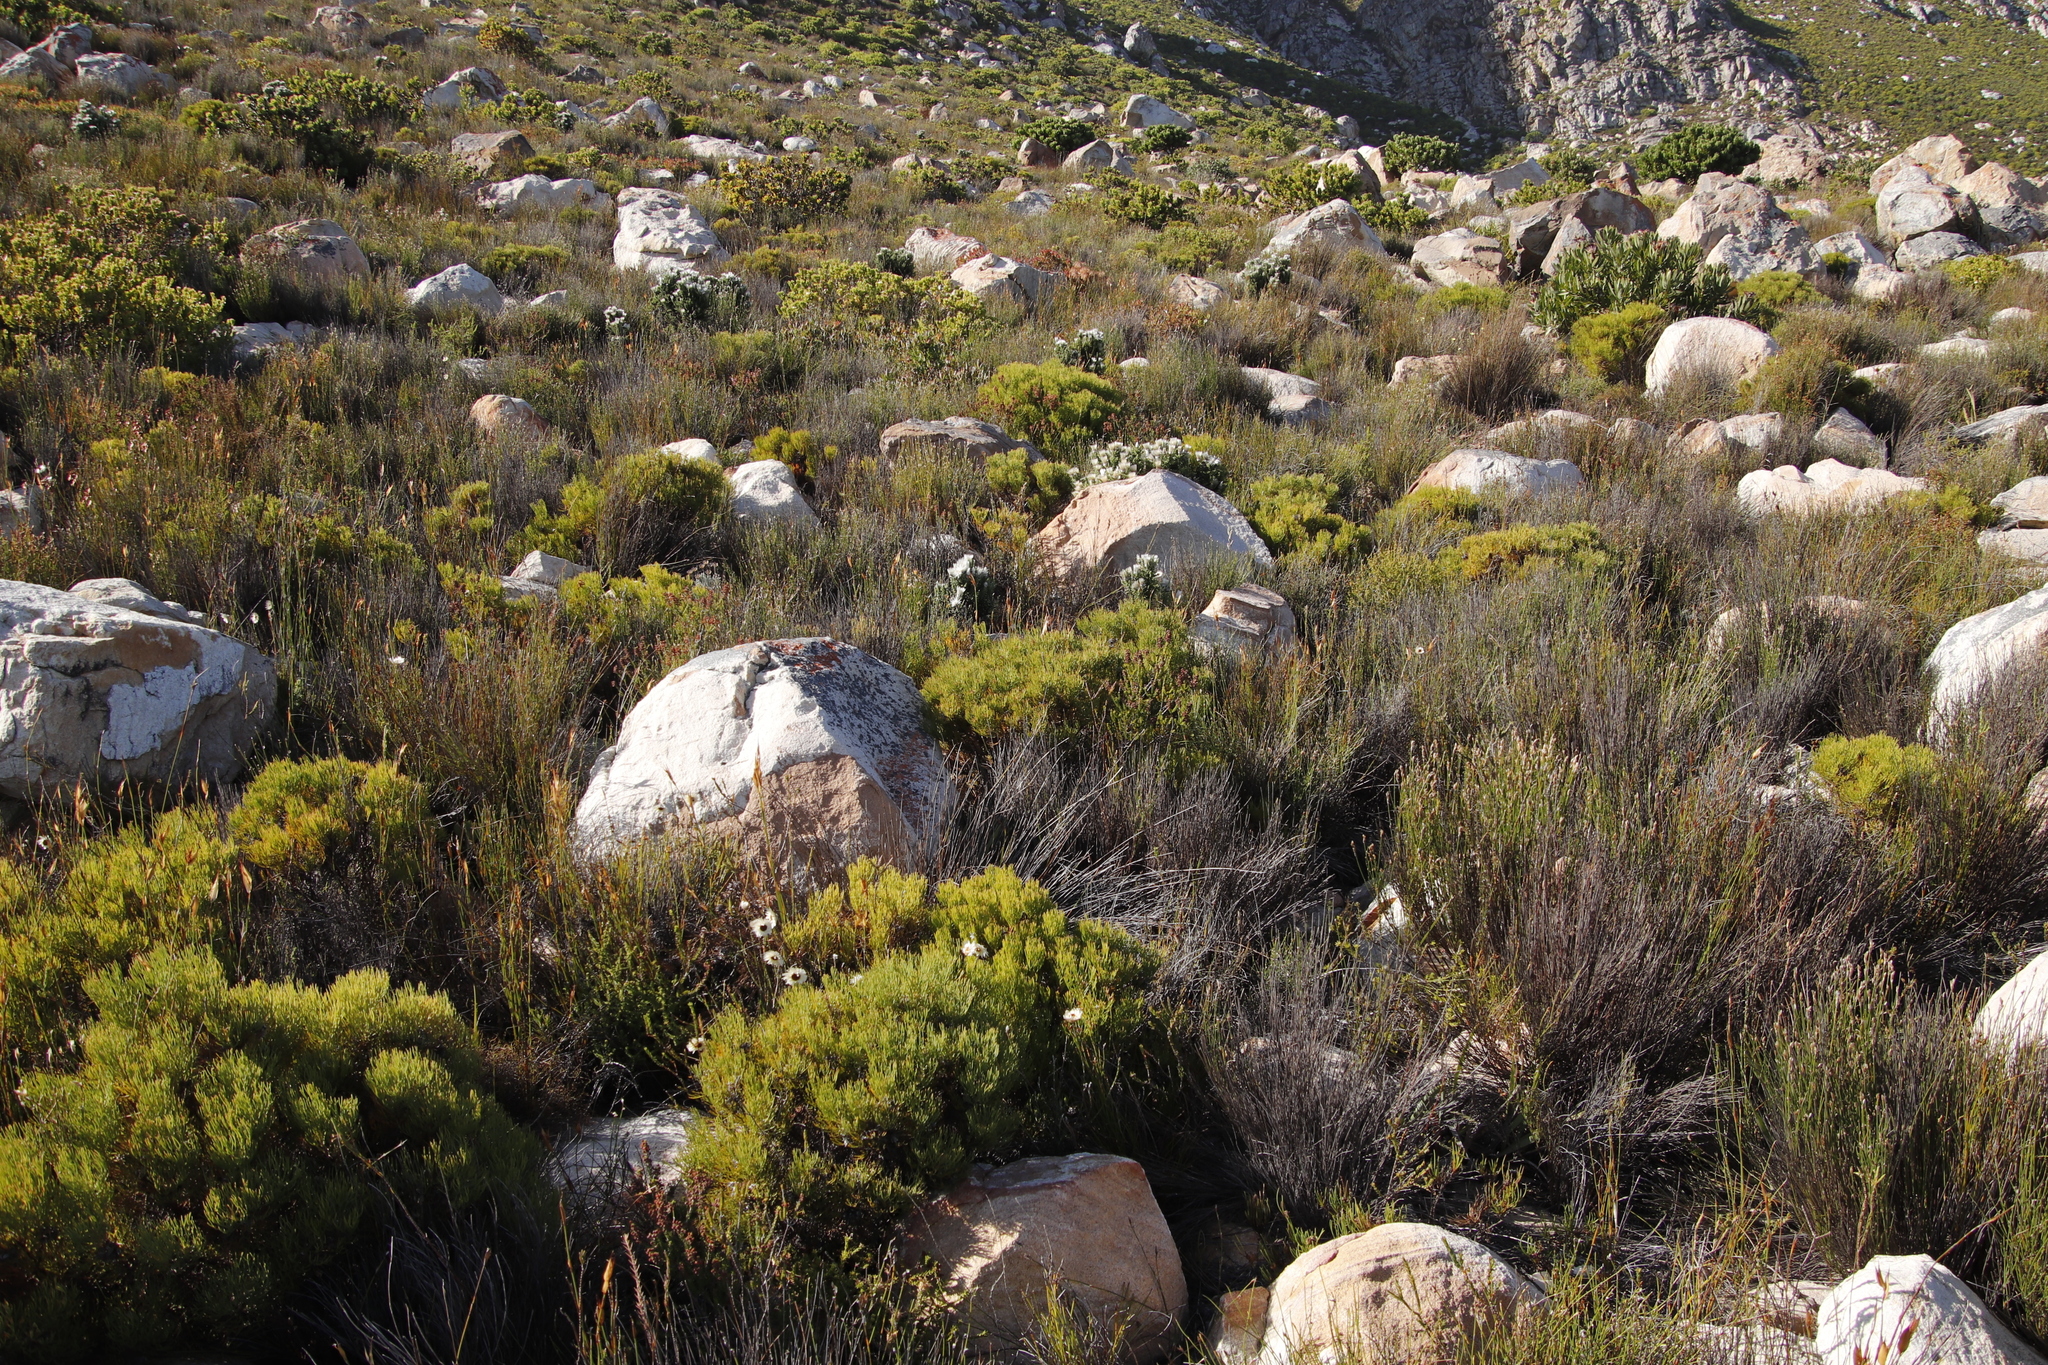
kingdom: Plantae
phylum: Tracheophyta
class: Magnoliopsida
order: Proteales
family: Proteaceae
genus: Serruria
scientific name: Serruria ascendens
